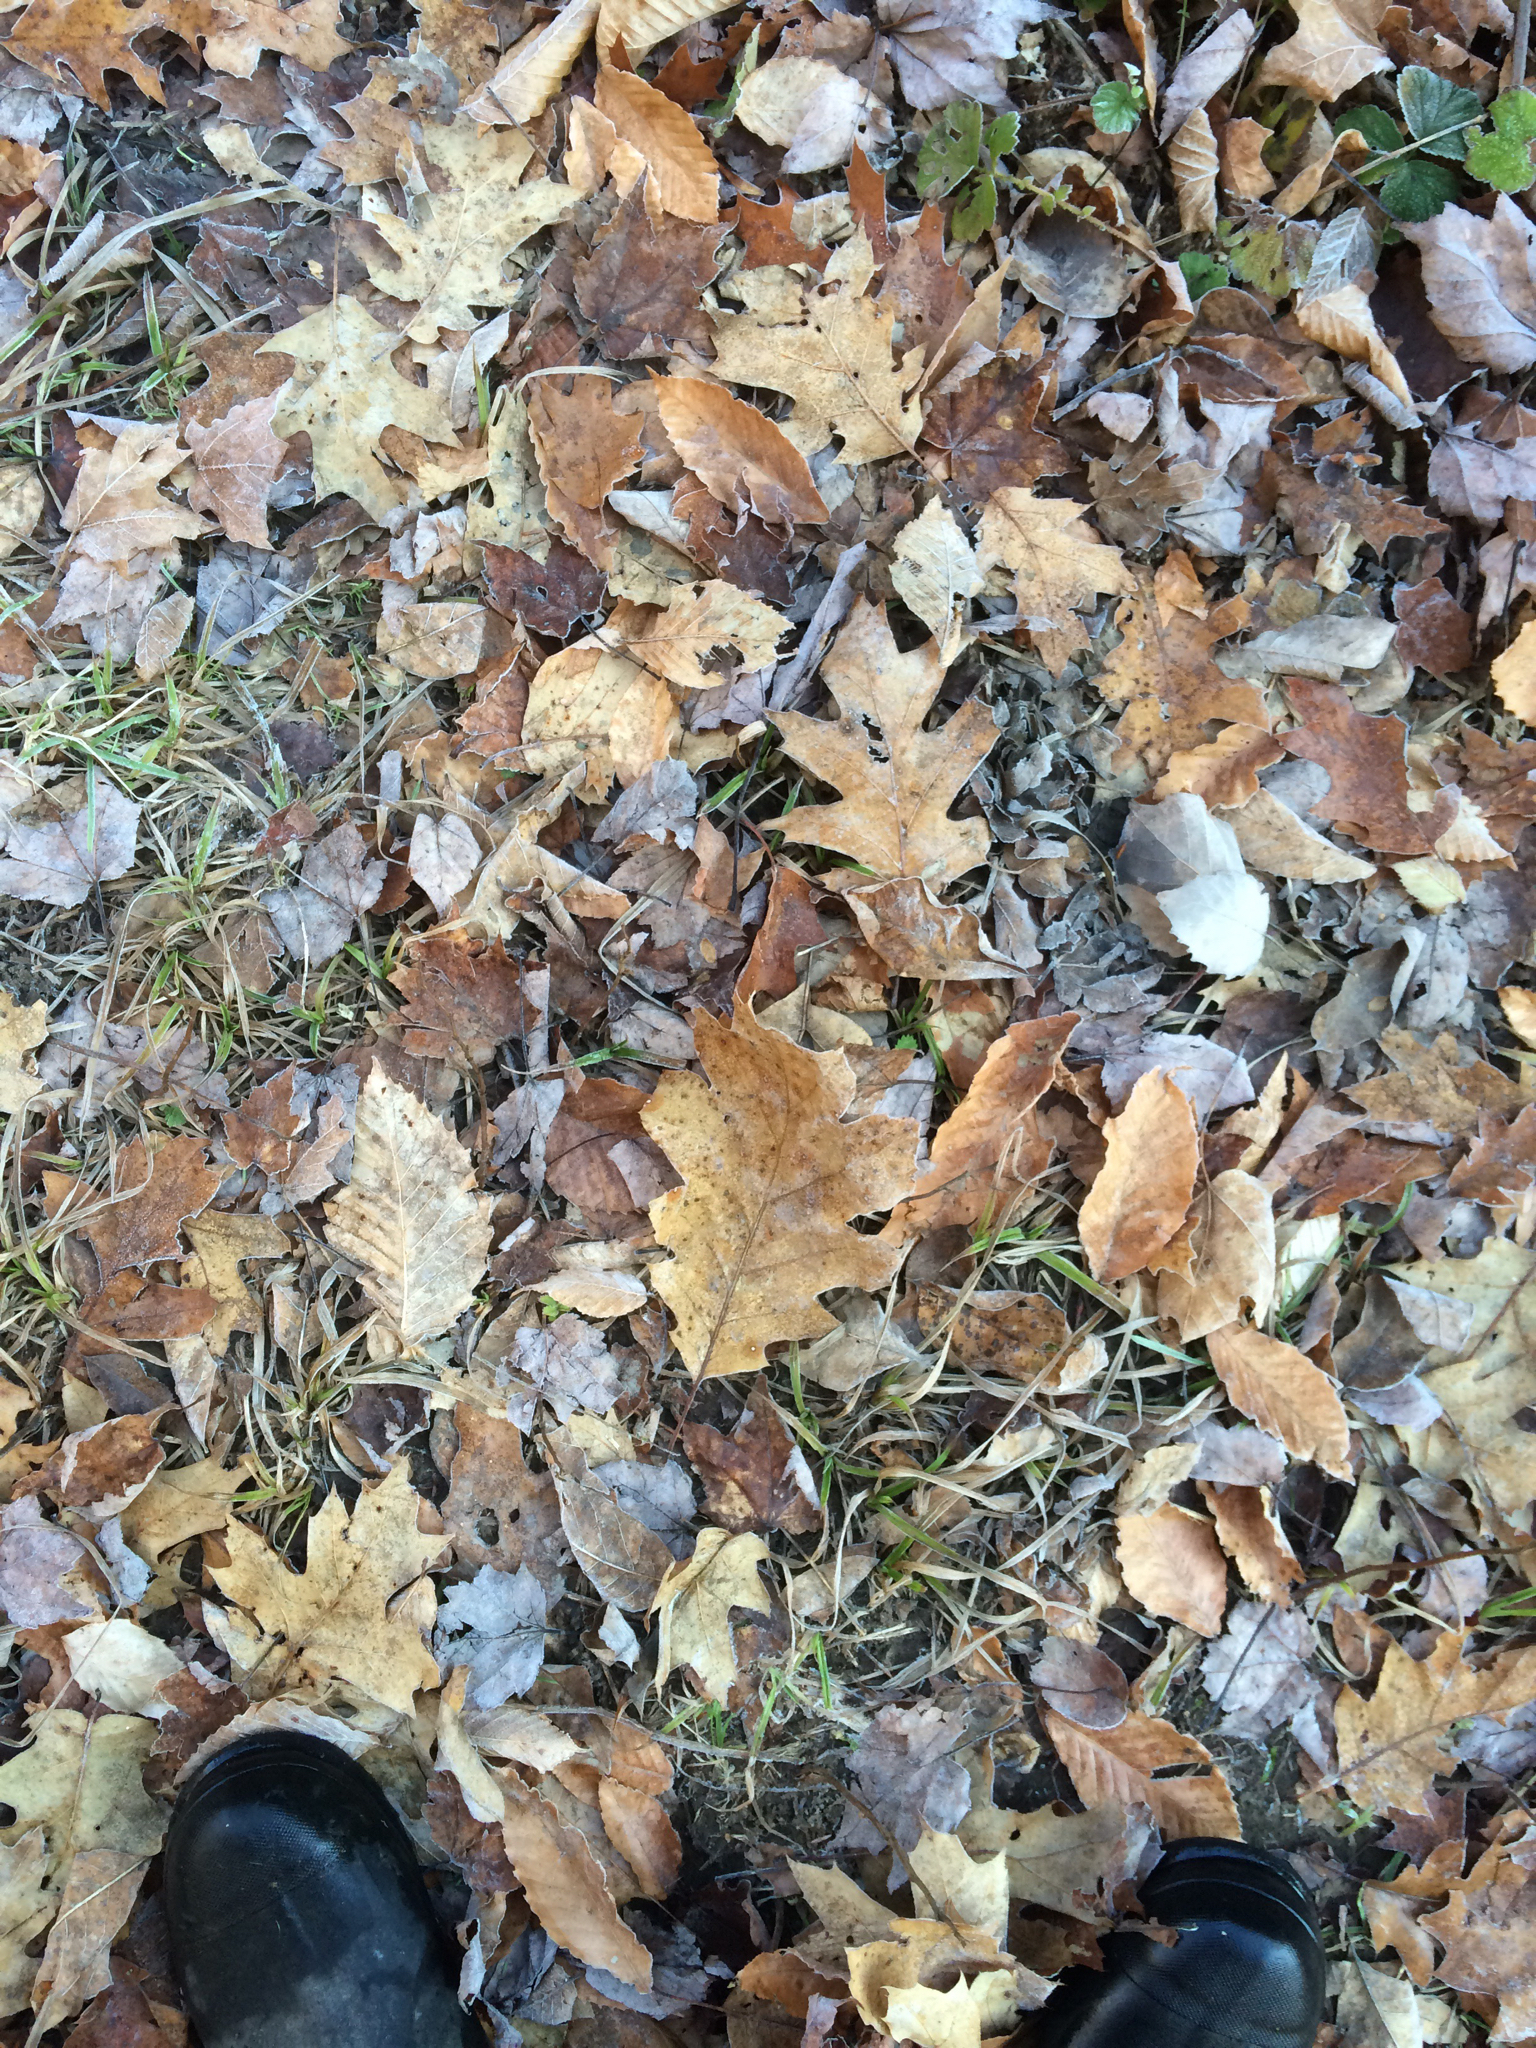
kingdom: Plantae
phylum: Tracheophyta
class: Magnoliopsida
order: Fagales
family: Fagaceae
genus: Quercus
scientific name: Quercus rubra
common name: Red oak
